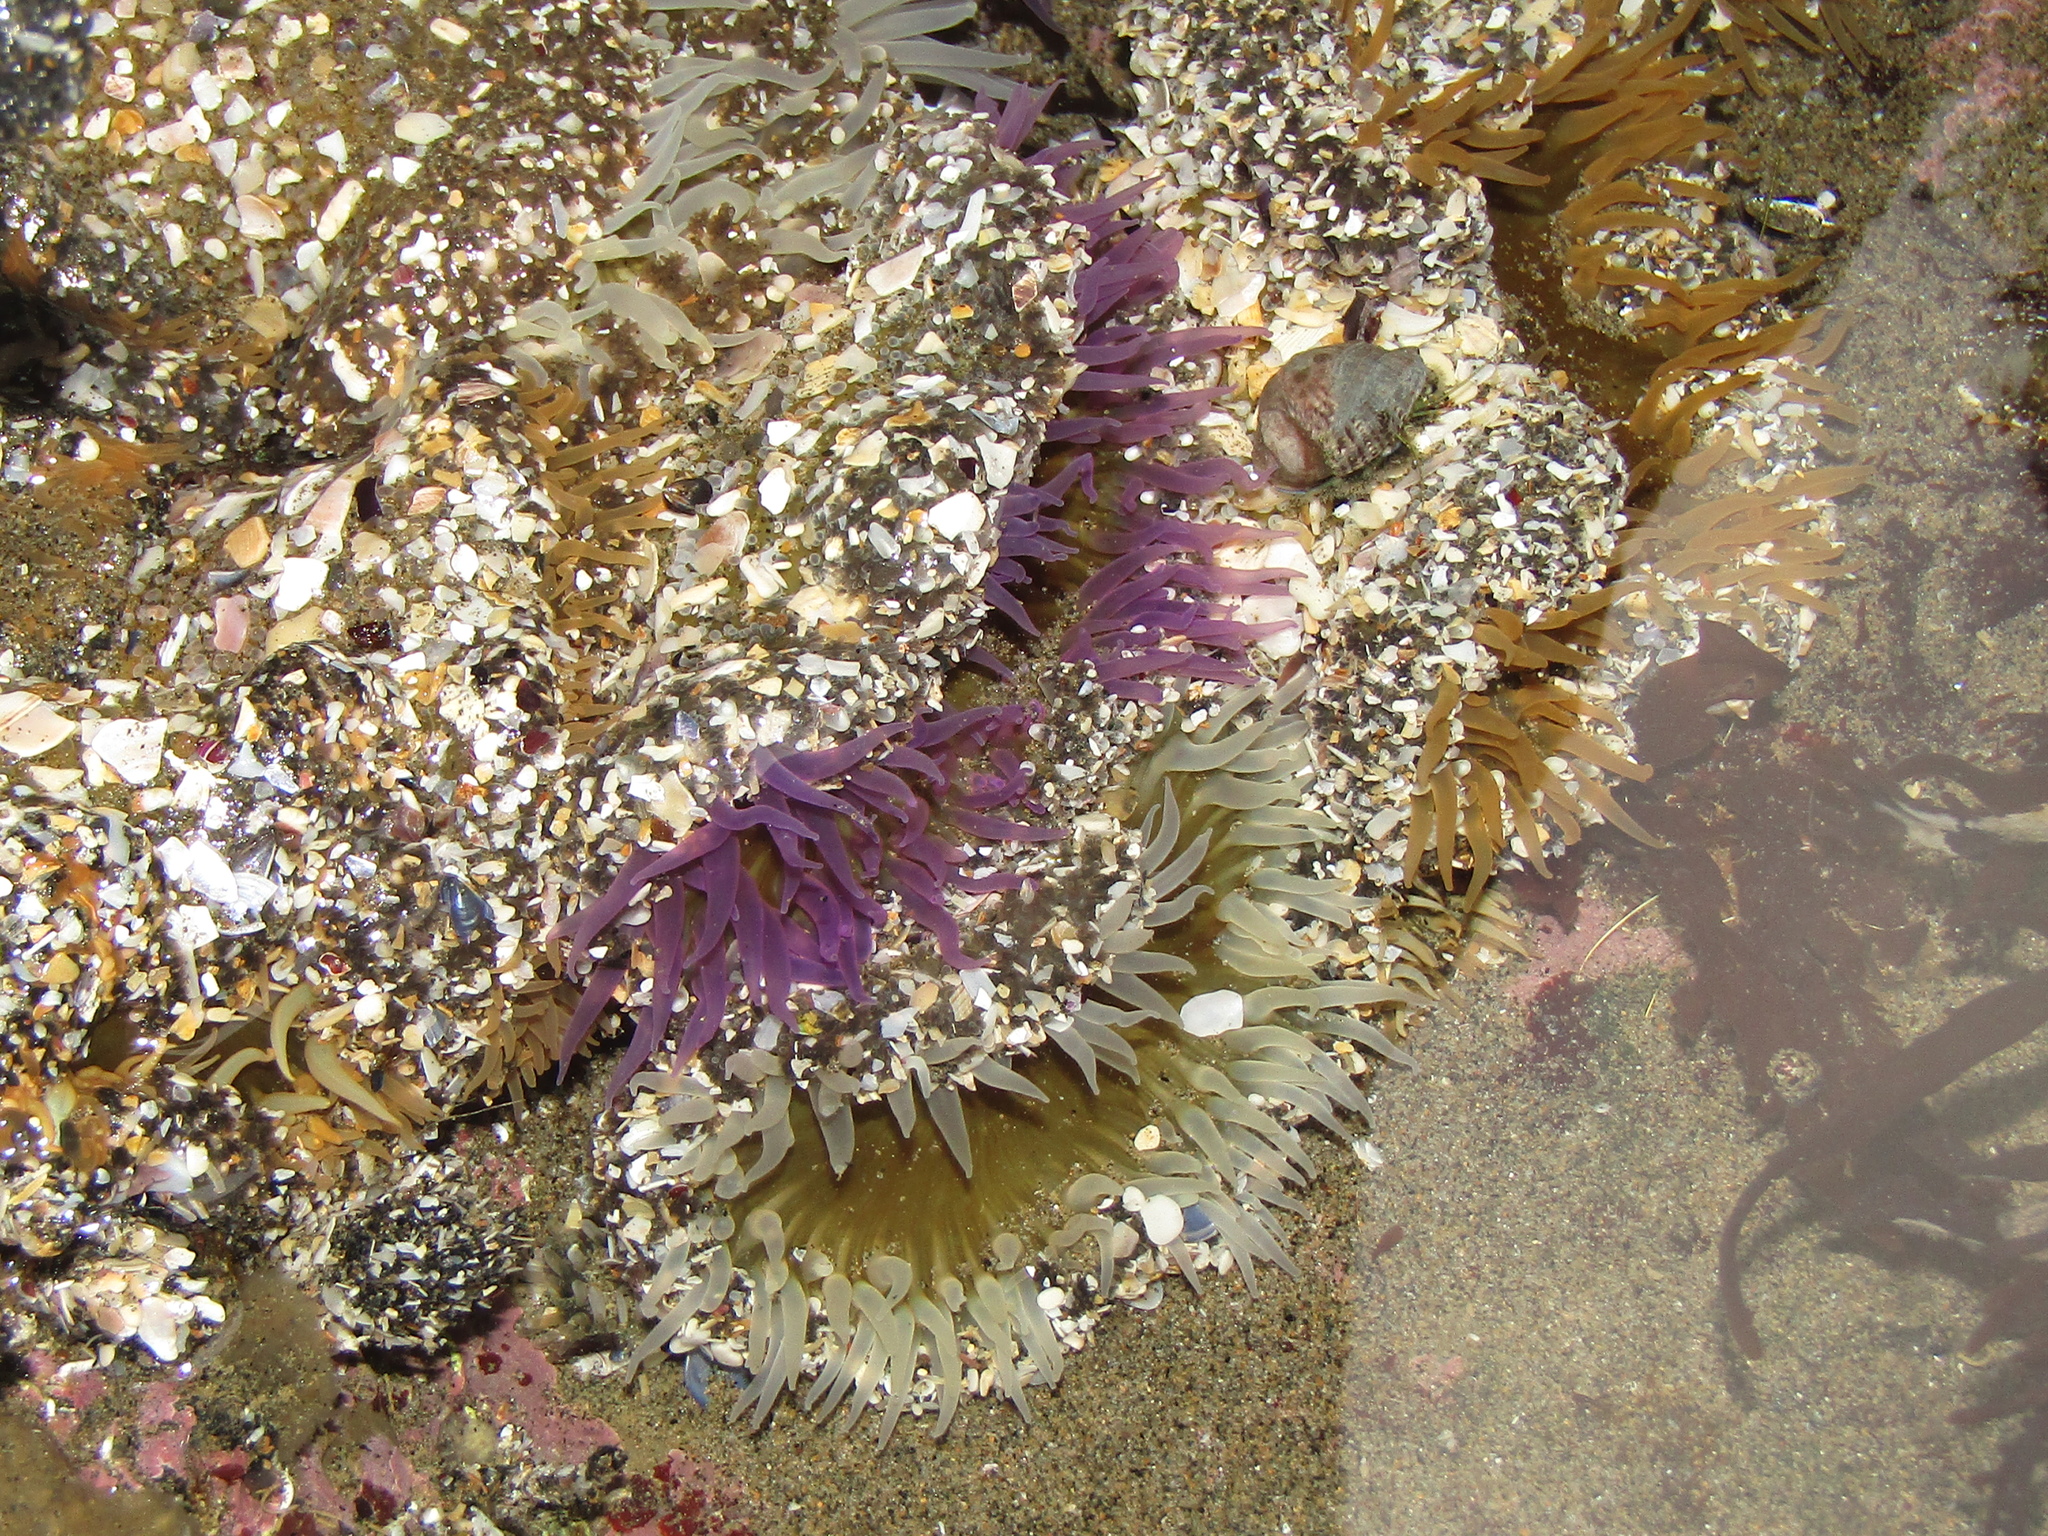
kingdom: Animalia
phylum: Cnidaria
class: Anthozoa
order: Actiniaria
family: Actiniidae
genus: Oulactis
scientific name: Oulactis magna
